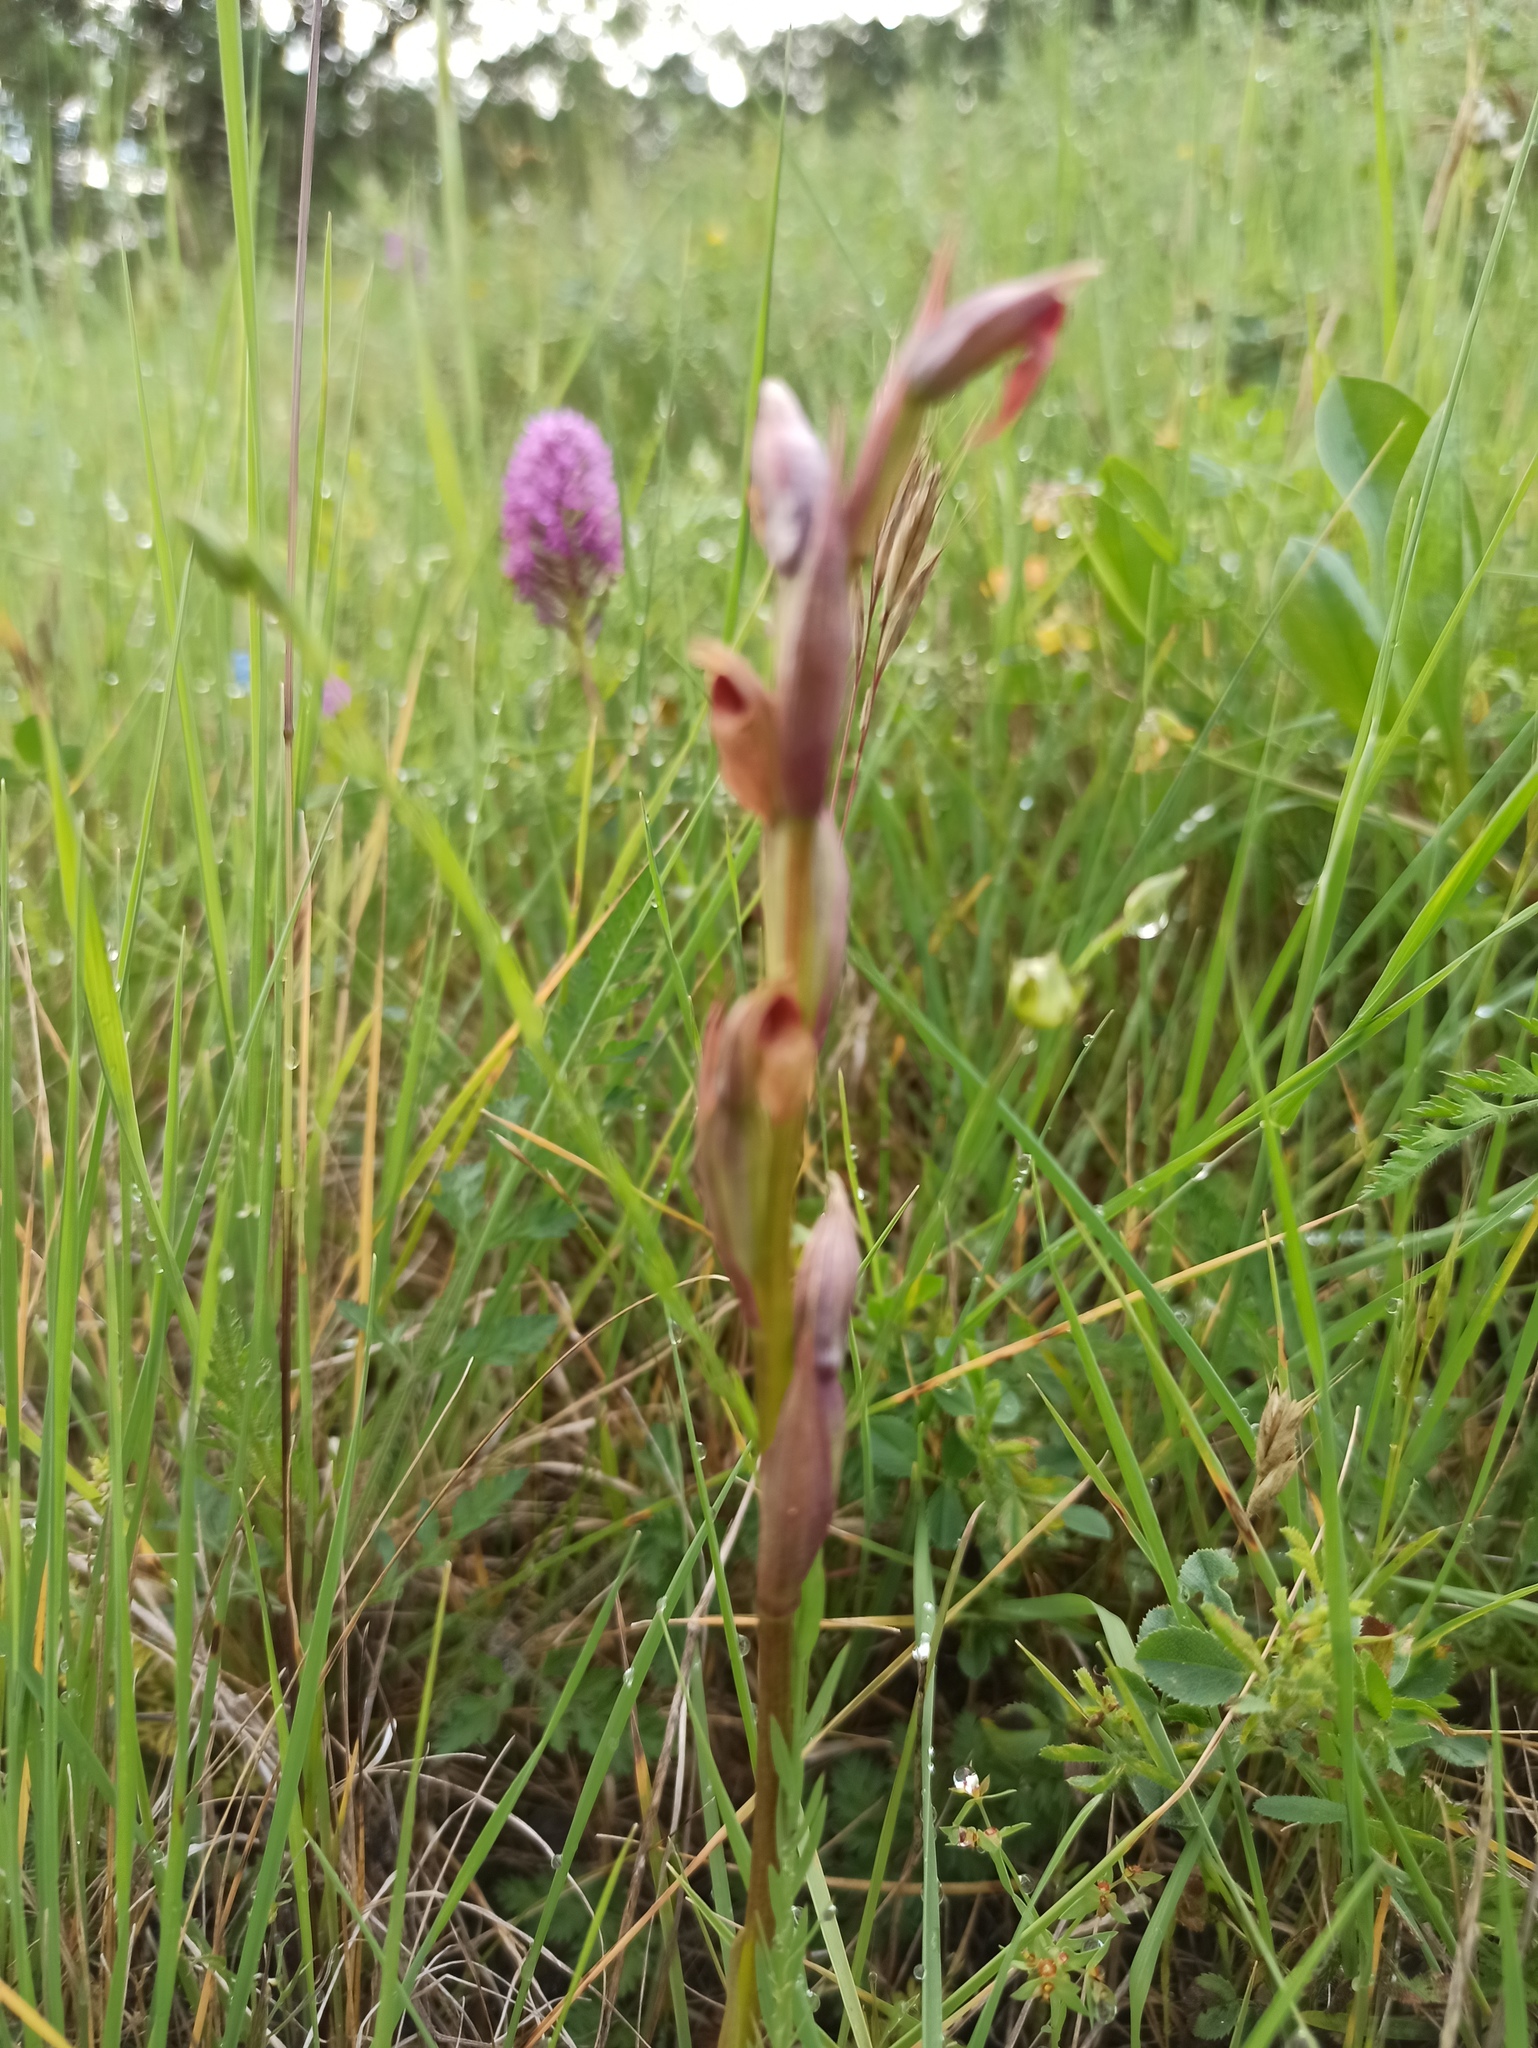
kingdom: Plantae
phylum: Tracheophyta
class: Liliopsida
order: Asparagales
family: Orchidaceae
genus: Serapias
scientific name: Serapias parviflora
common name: Small-flowered tongue-orchid
